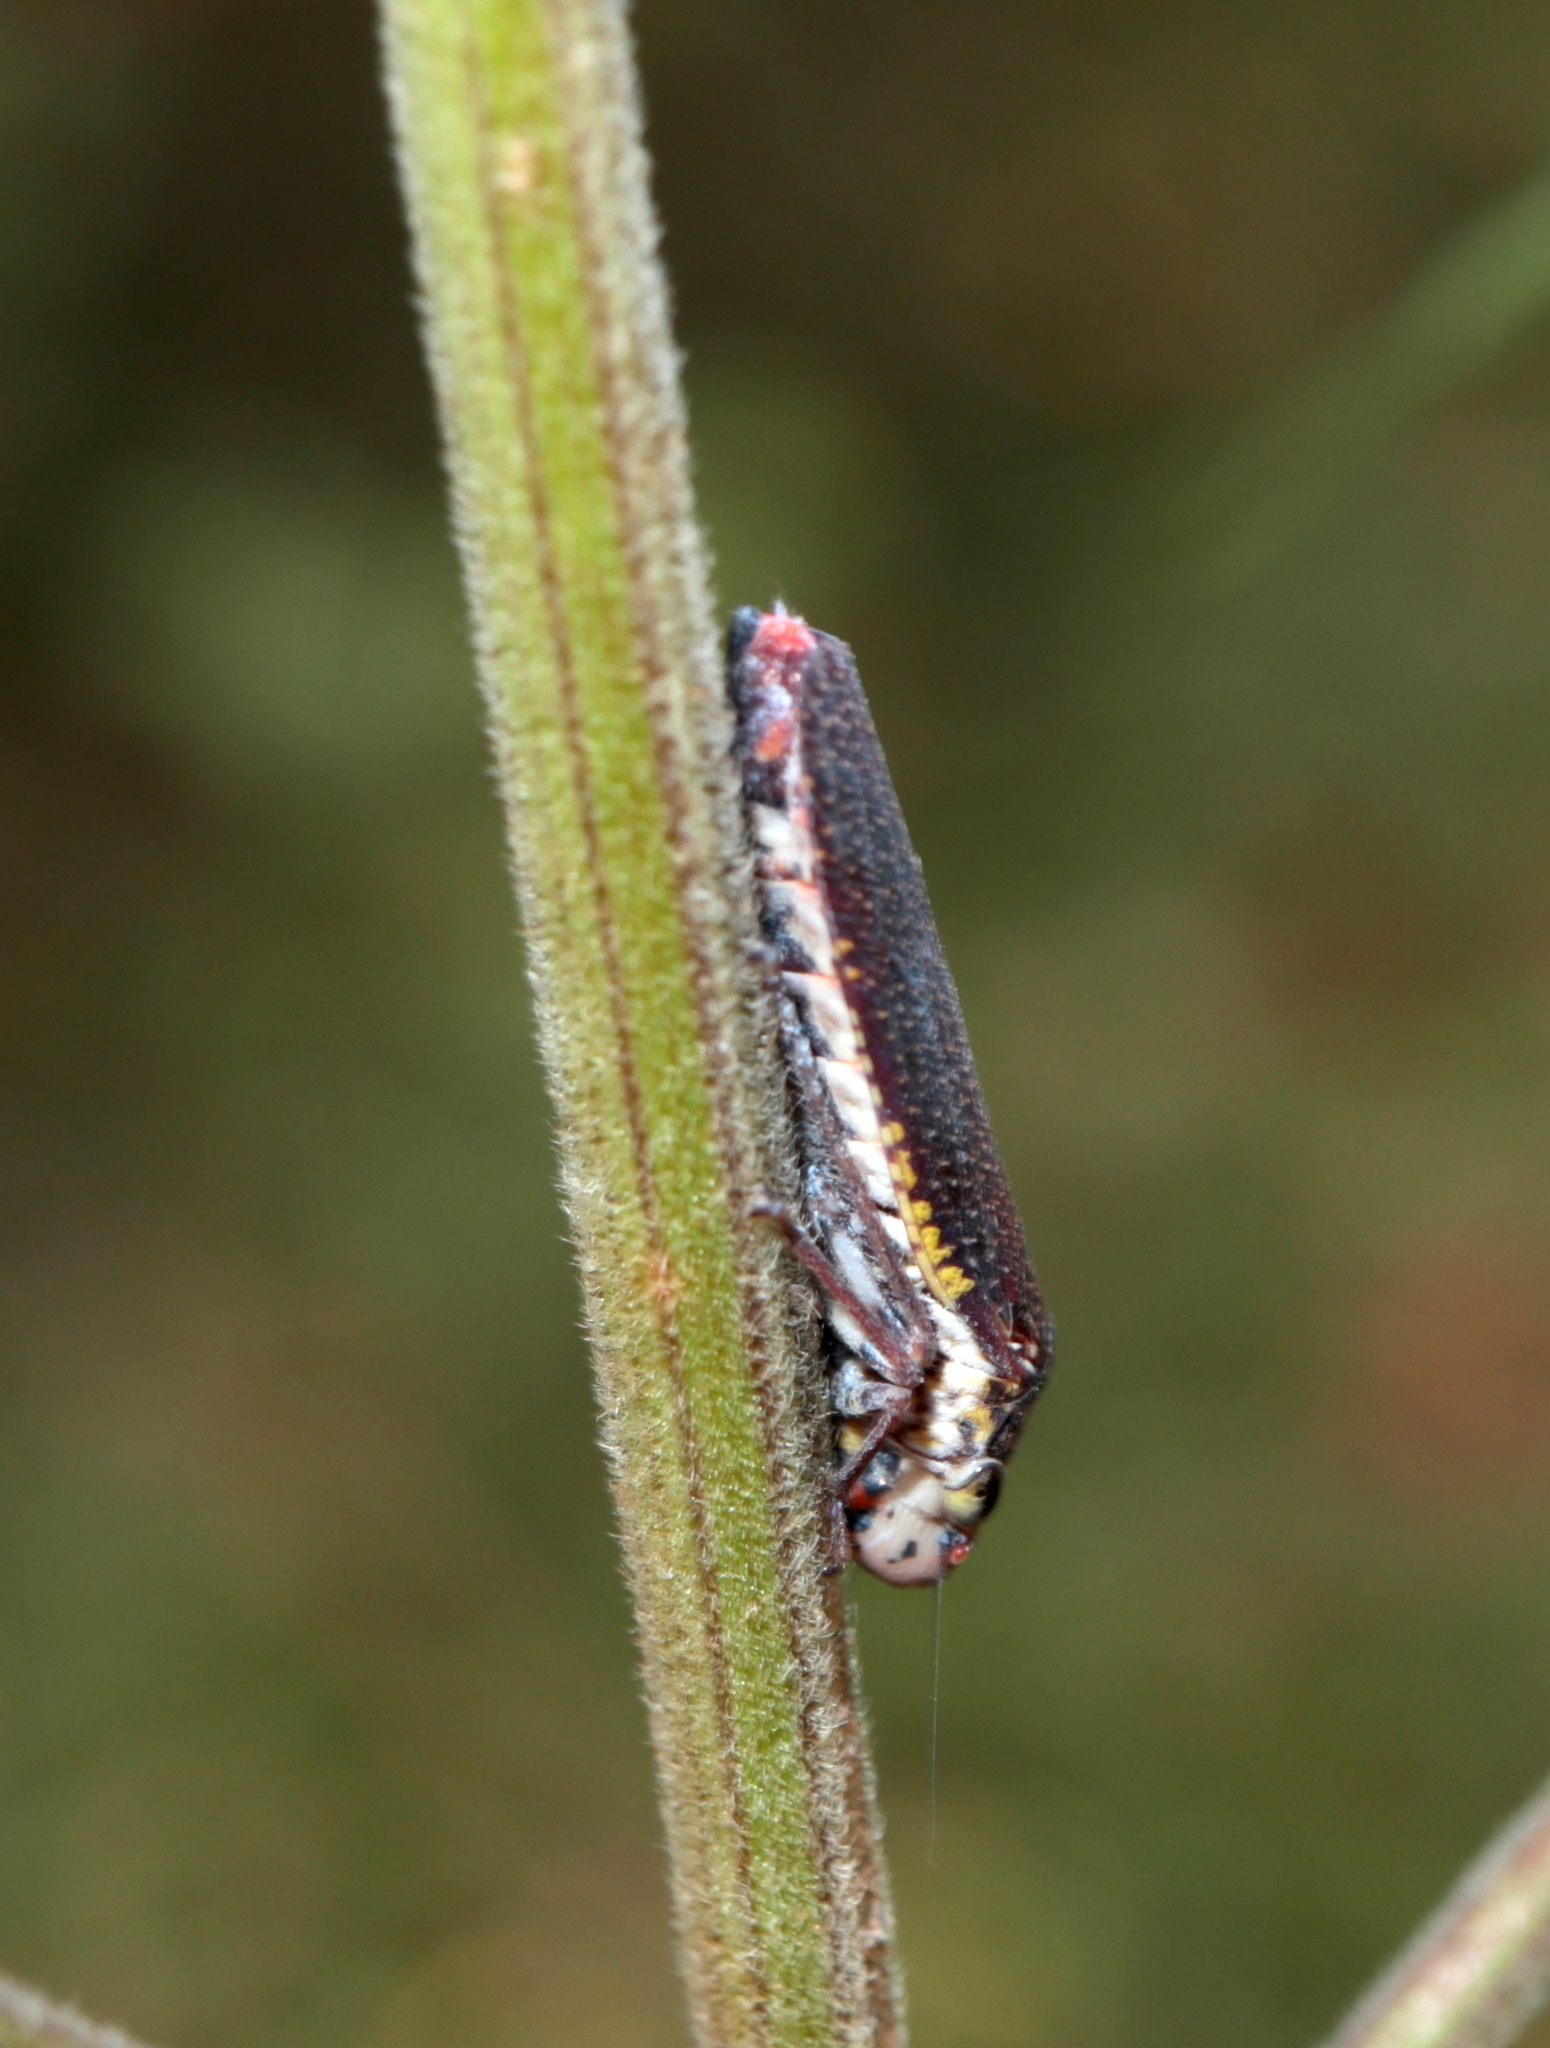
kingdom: Animalia
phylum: Arthropoda
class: Insecta
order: Hemiptera
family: Cicadellidae
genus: Paraulacizes
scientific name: Paraulacizes irrorata
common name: Speckled sharpshooter
